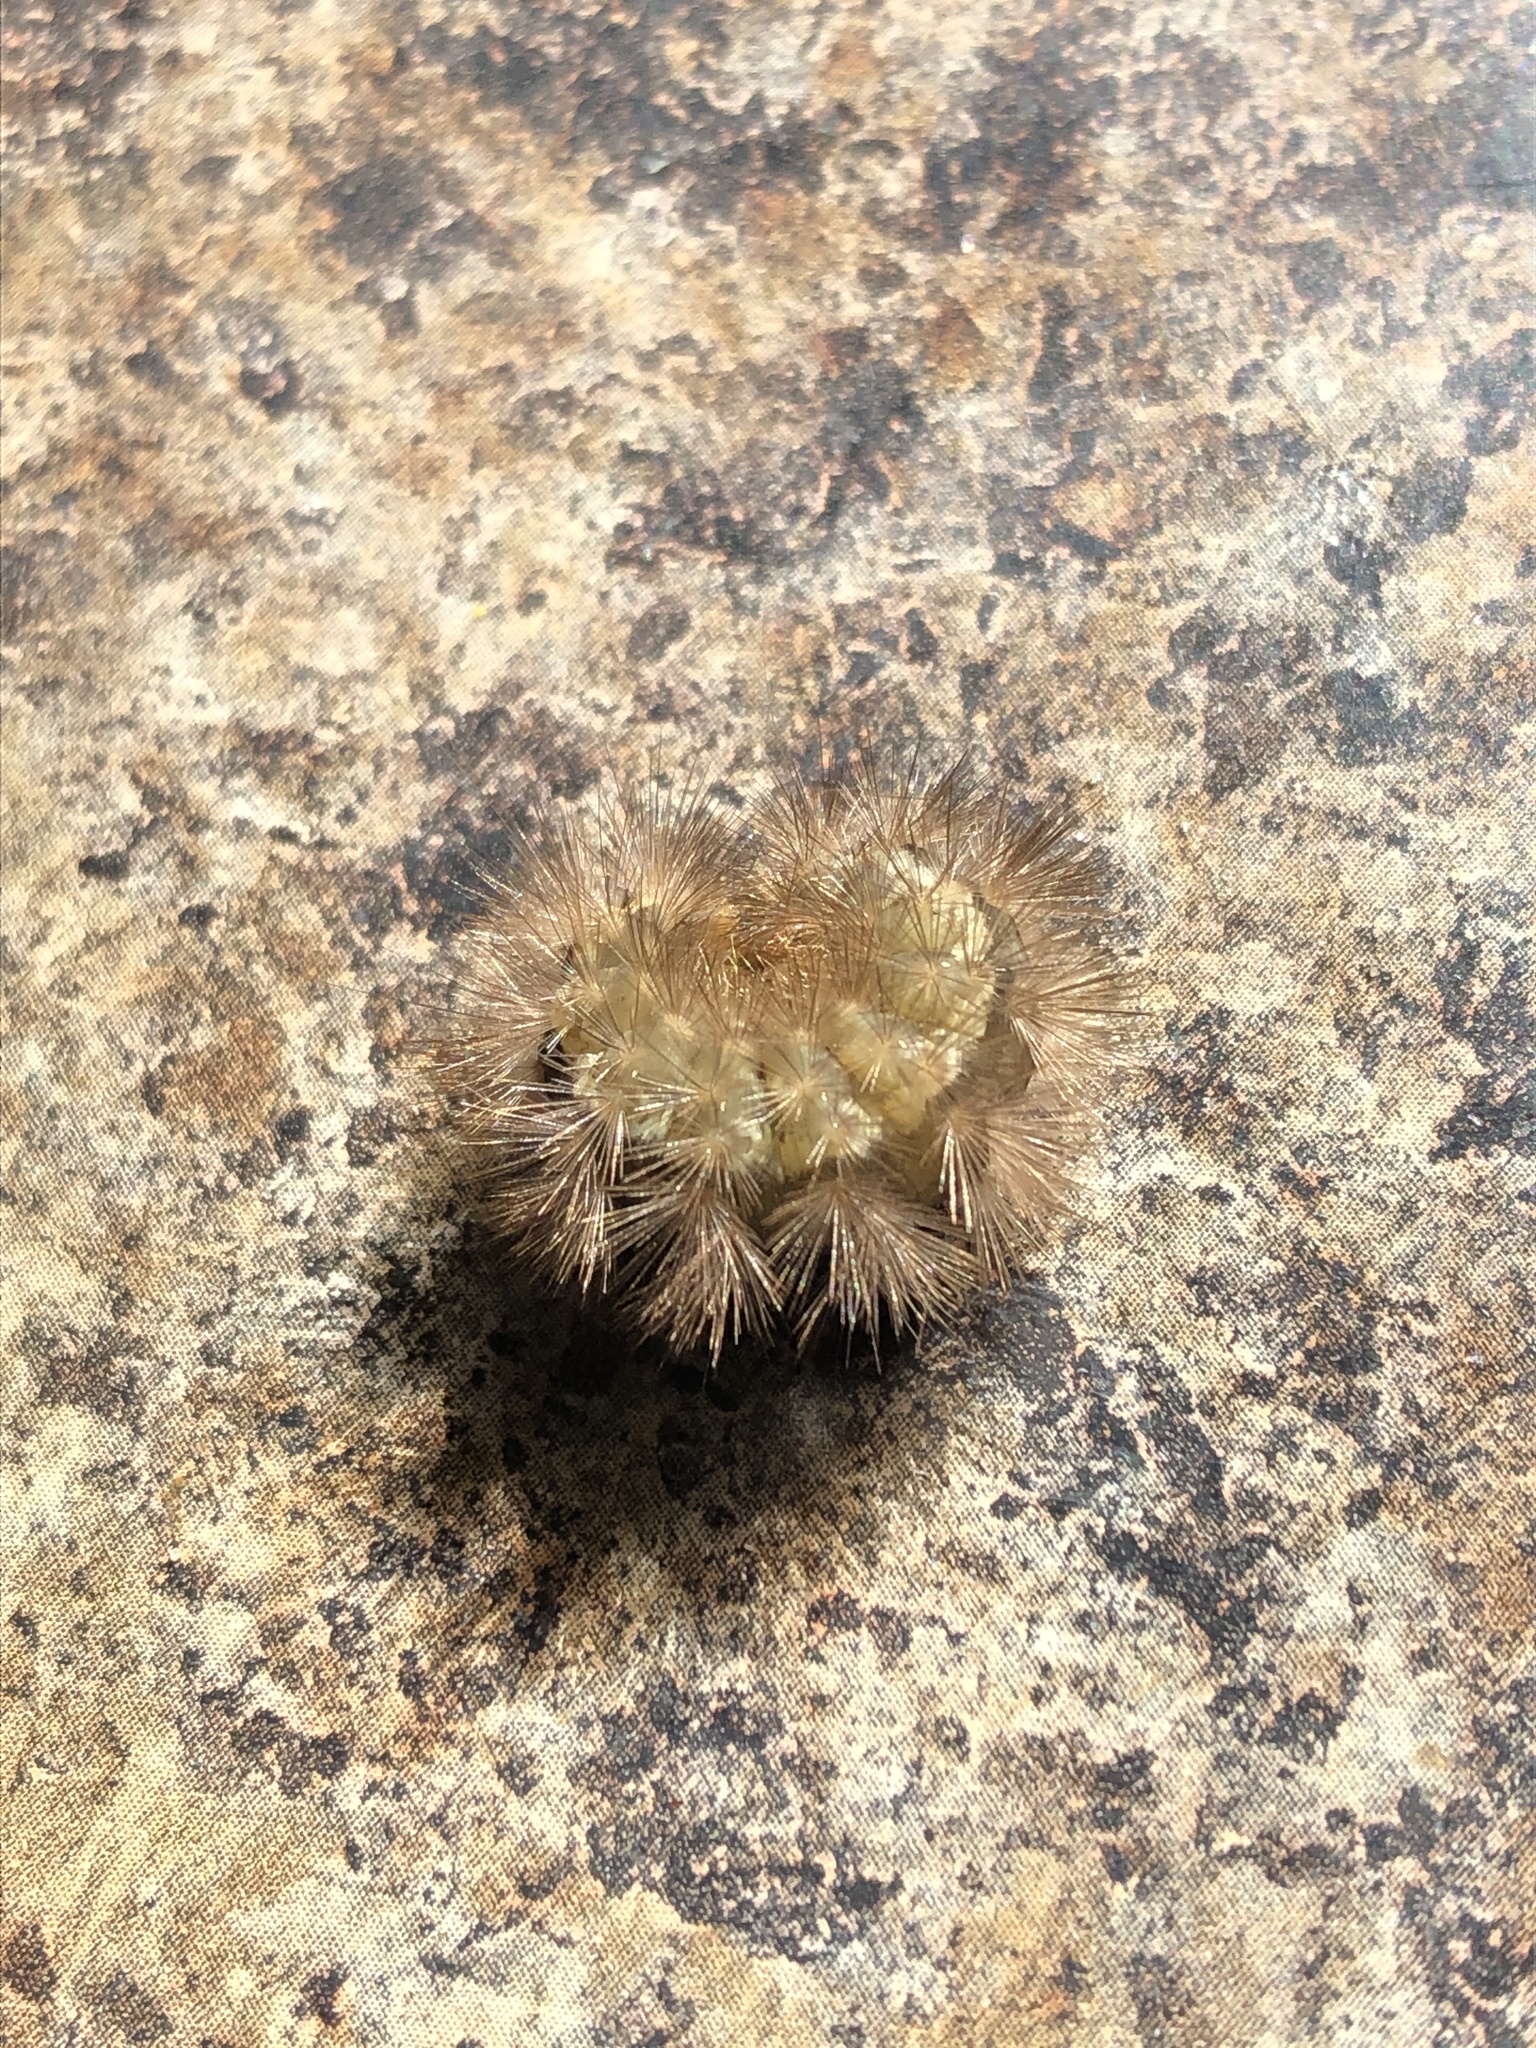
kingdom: Animalia
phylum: Arthropoda
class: Insecta
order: Lepidoptera
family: Erebidae
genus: Spilarctia
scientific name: Spilarctia lutea
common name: Buff ermine
